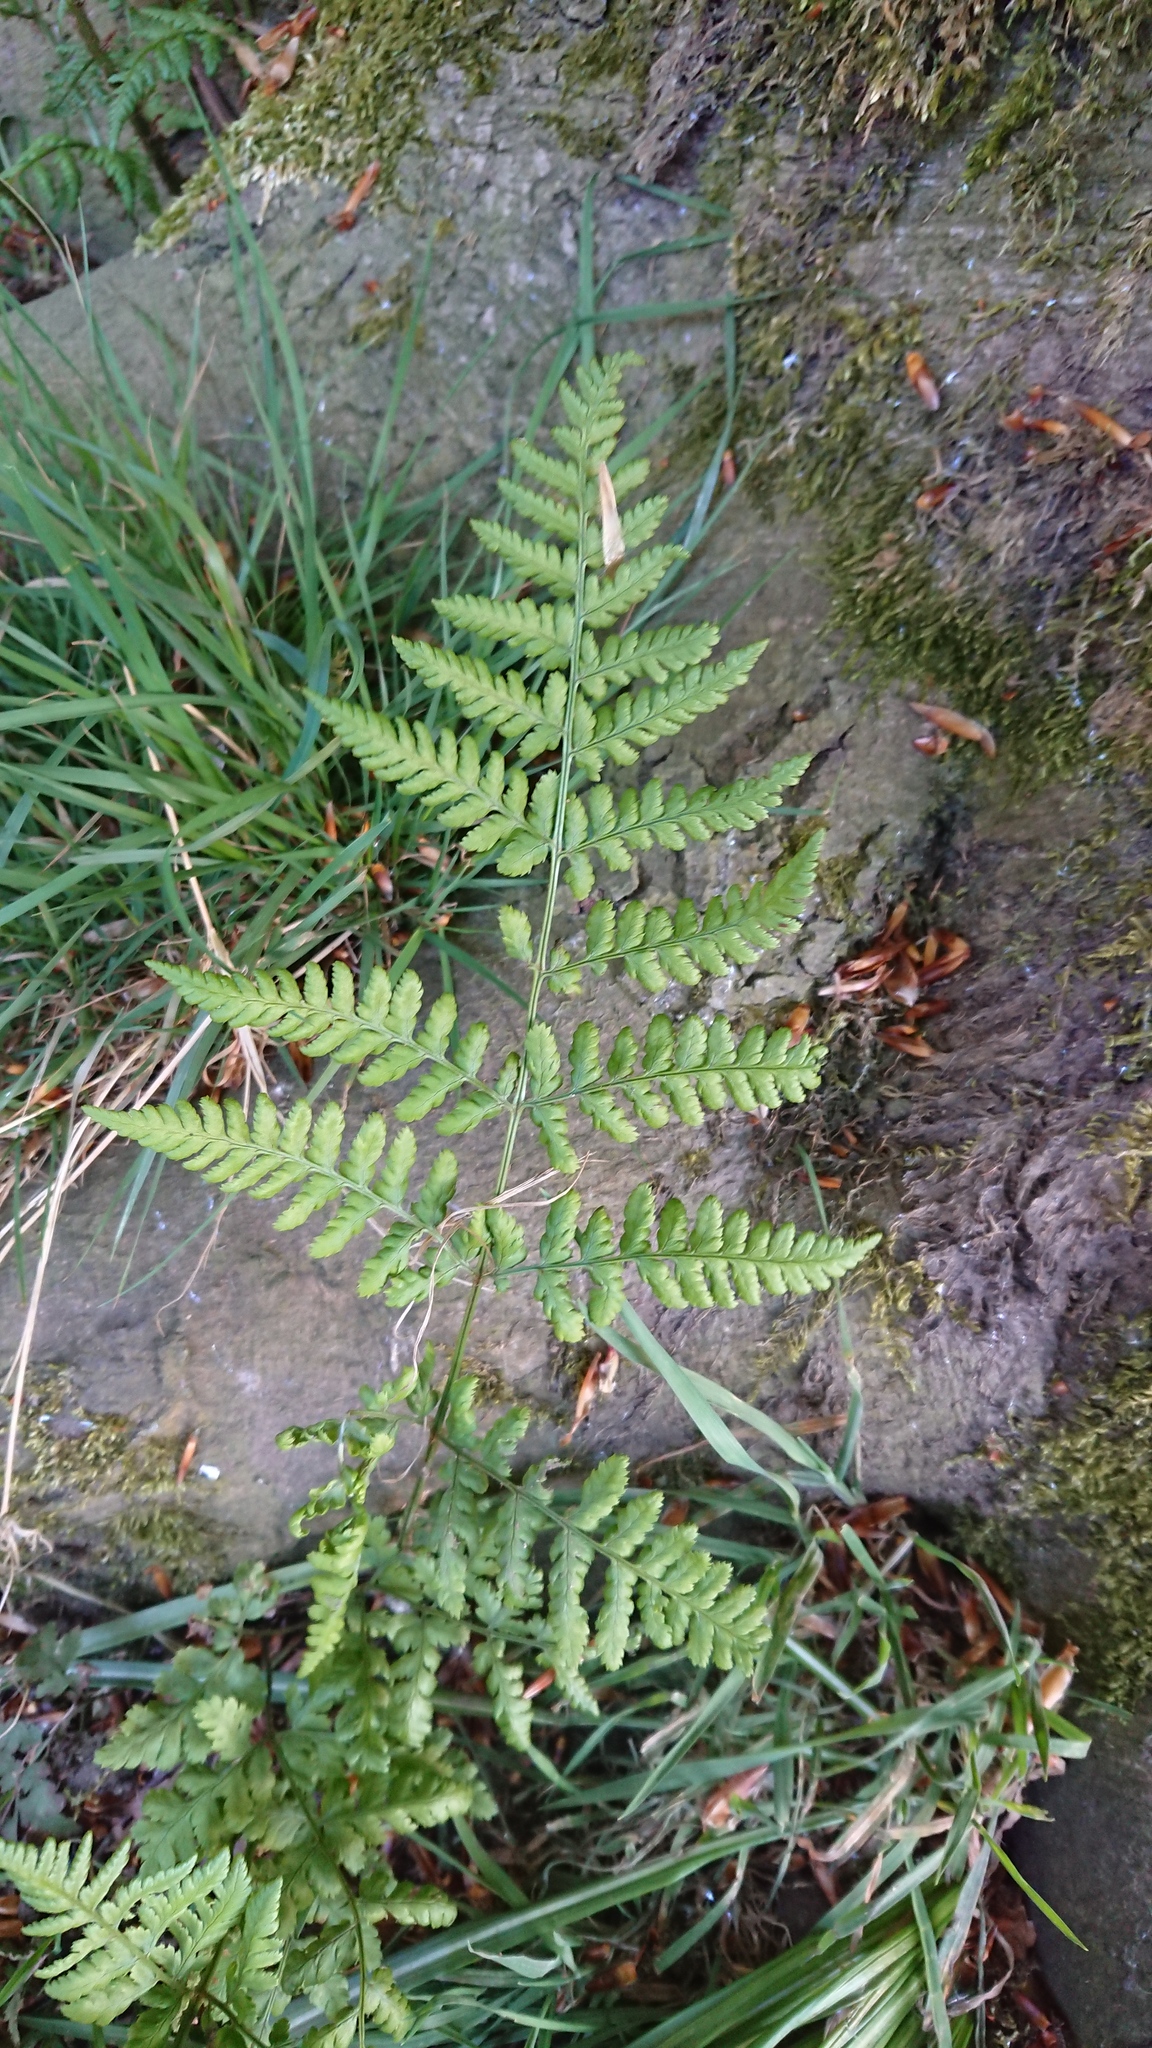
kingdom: Plantae
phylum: Tracheophyta
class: Polypodiopsida
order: Polypodiales
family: Athyriaceae
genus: Athyrium
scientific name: Athyrium filix-femina
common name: Lady fern
